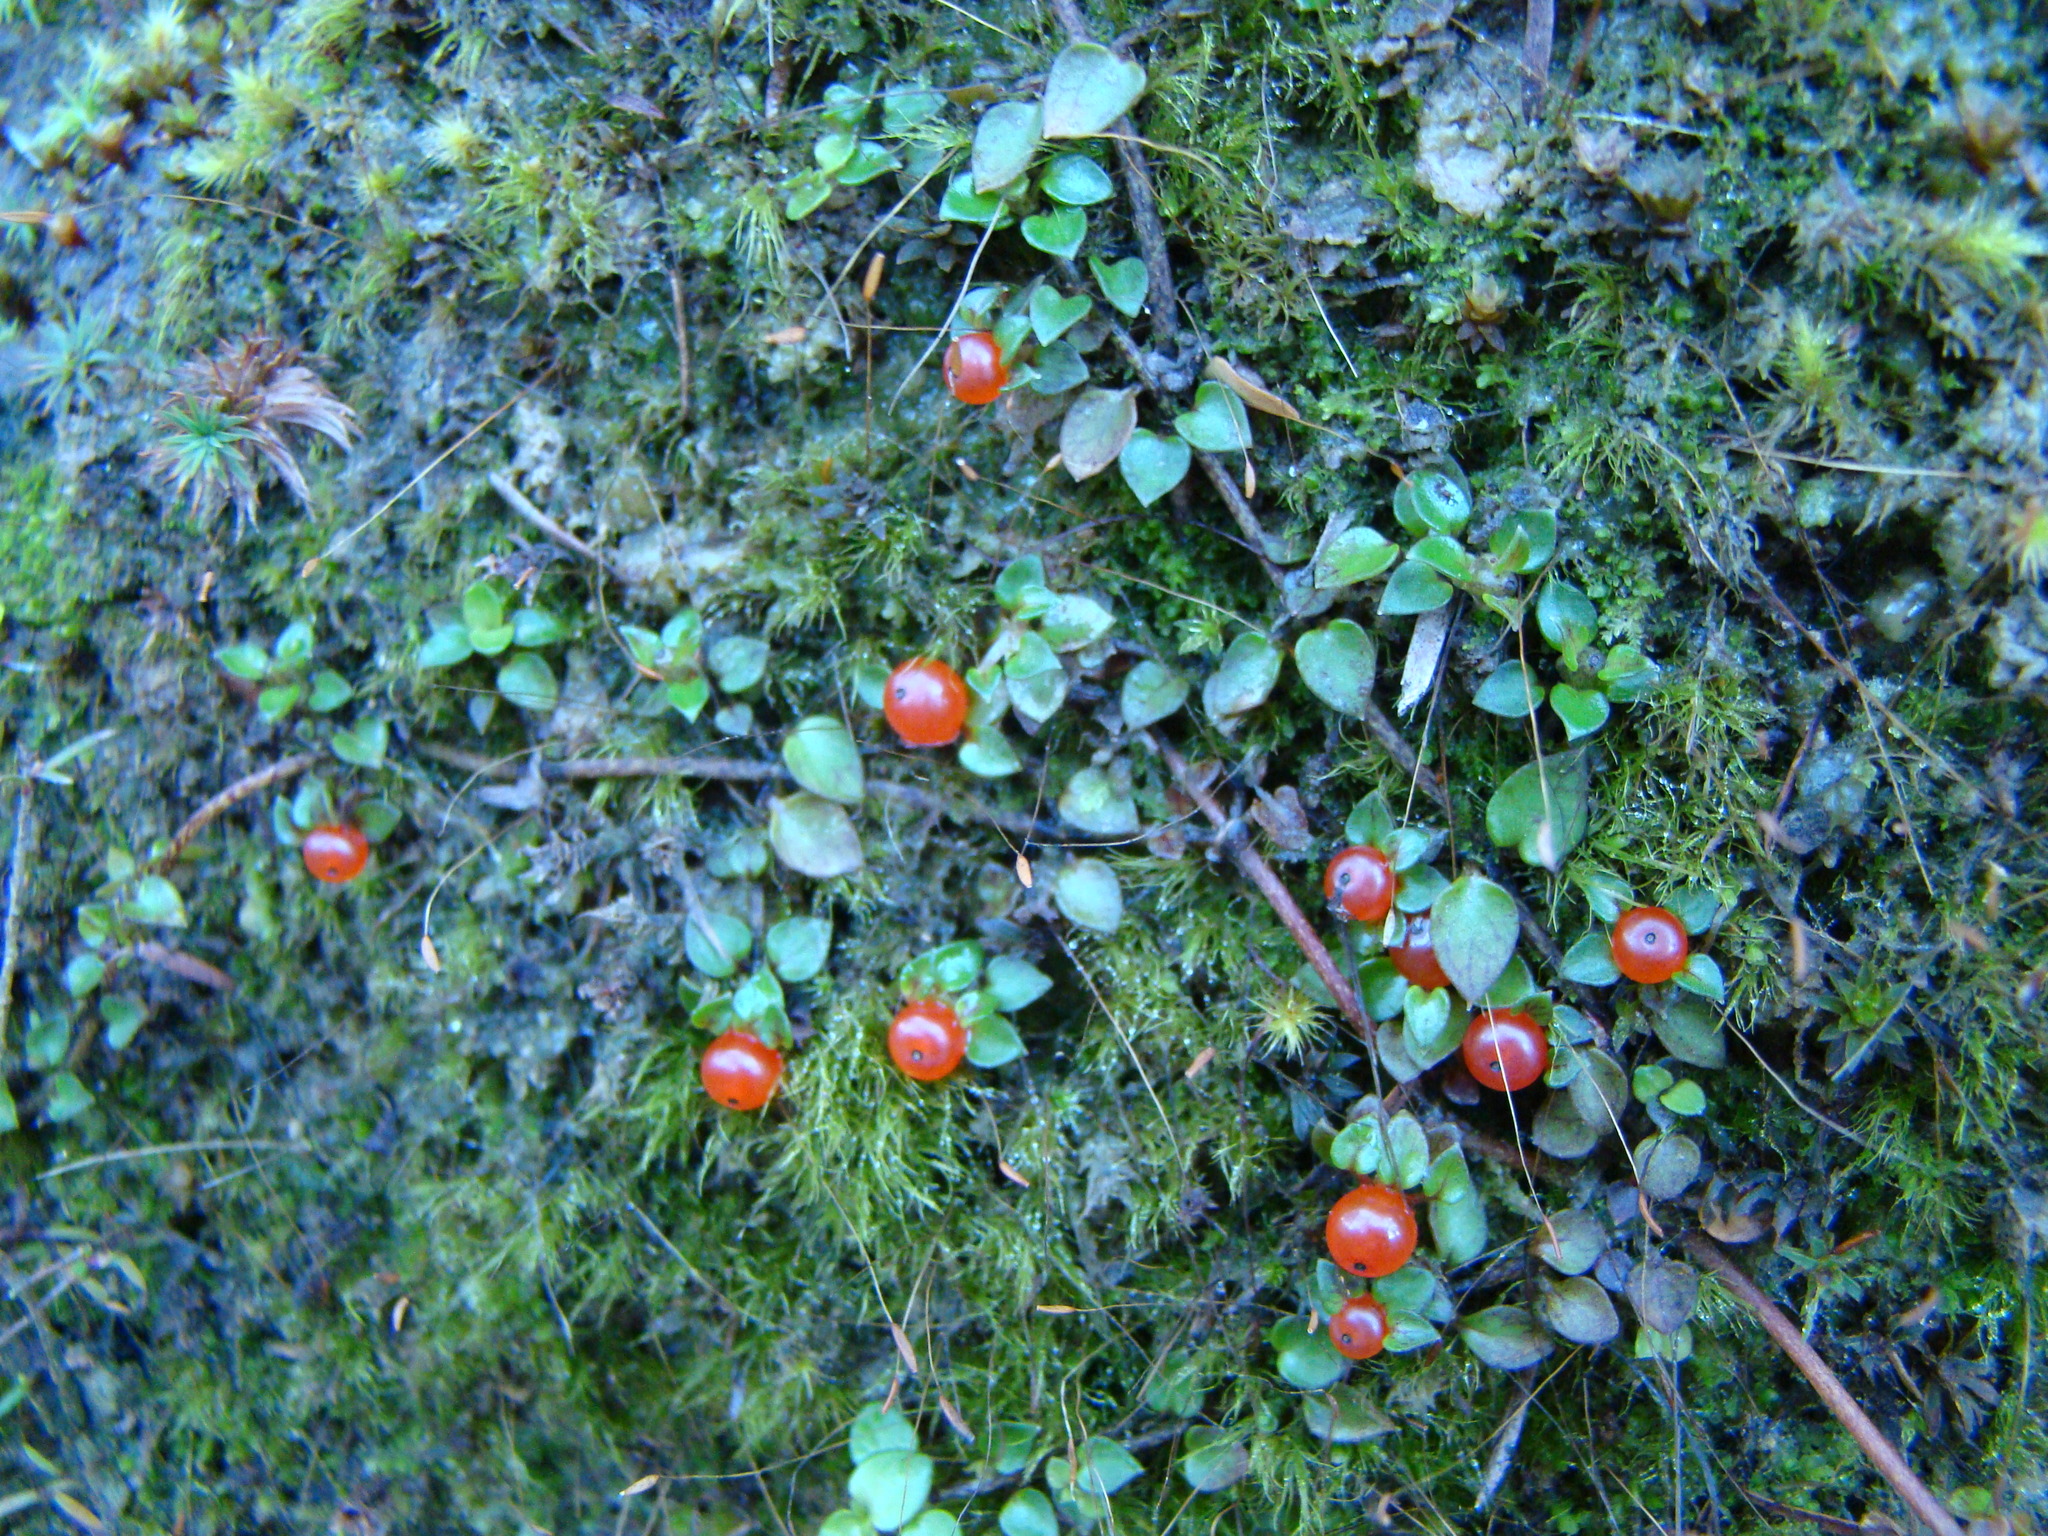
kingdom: Plantae
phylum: Tracheophyta
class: Magnoliopsida
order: Gentianales
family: Rubiaceae
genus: Nertera
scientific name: Nertera granadensis
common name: Beadplant
